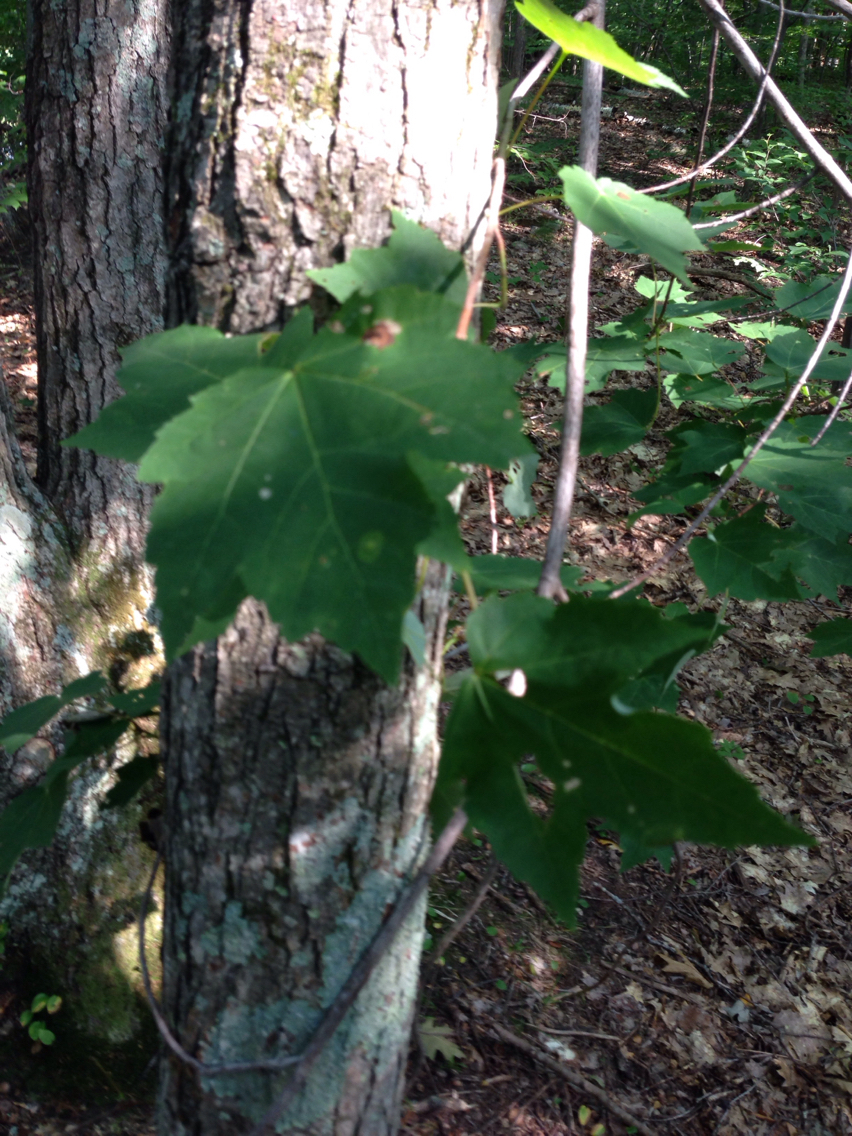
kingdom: Plantae
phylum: Tracheophyta
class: Magnoliopsida
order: Sapindales
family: Sapindaceae
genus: Acer
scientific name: Acer rubrum
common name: Red maple
